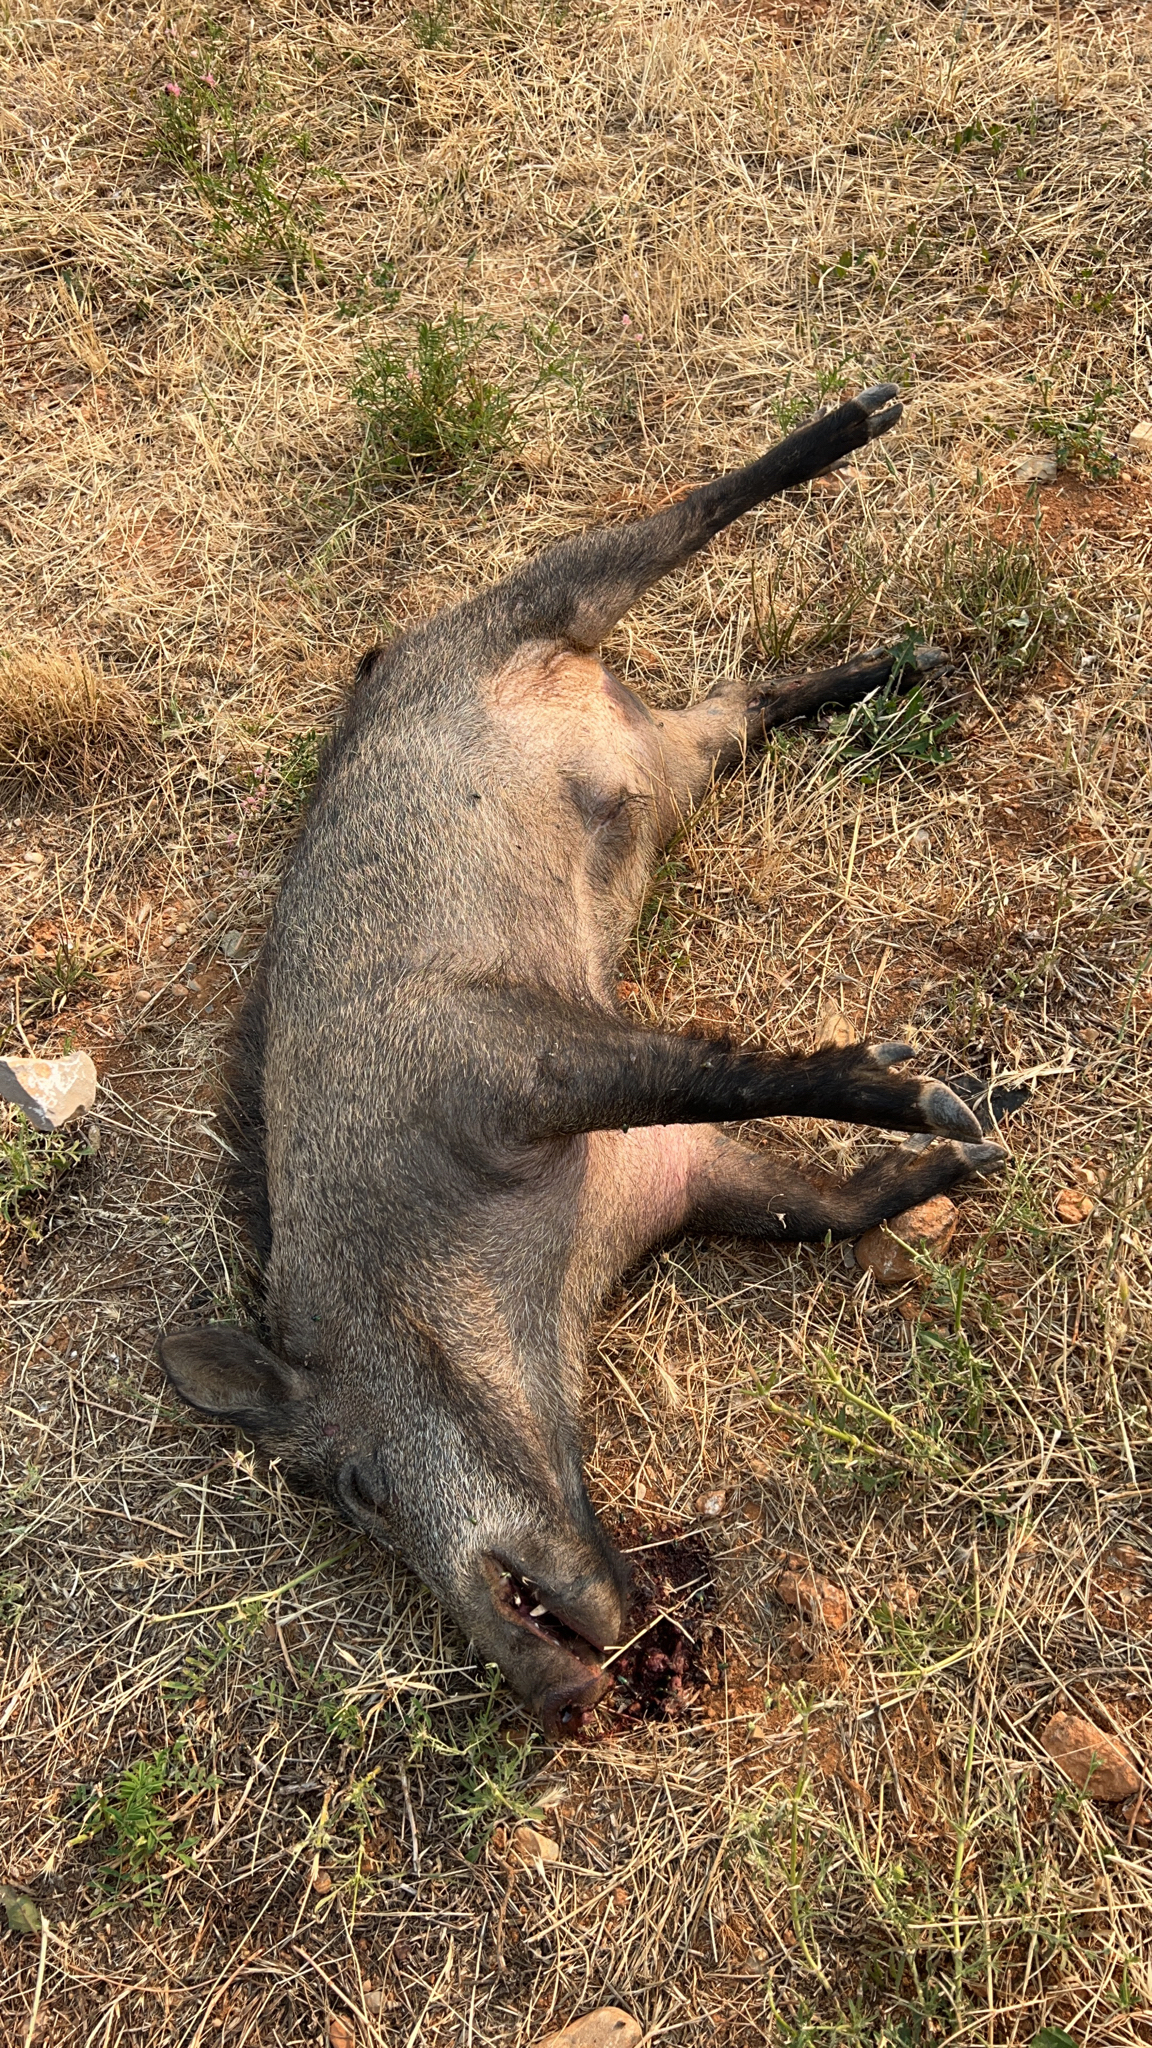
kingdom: Animalia
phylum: Chordata
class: Mammalia
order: Artiodactyla
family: Suidae
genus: Sus
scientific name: Sus scrofa
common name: Wild boar
